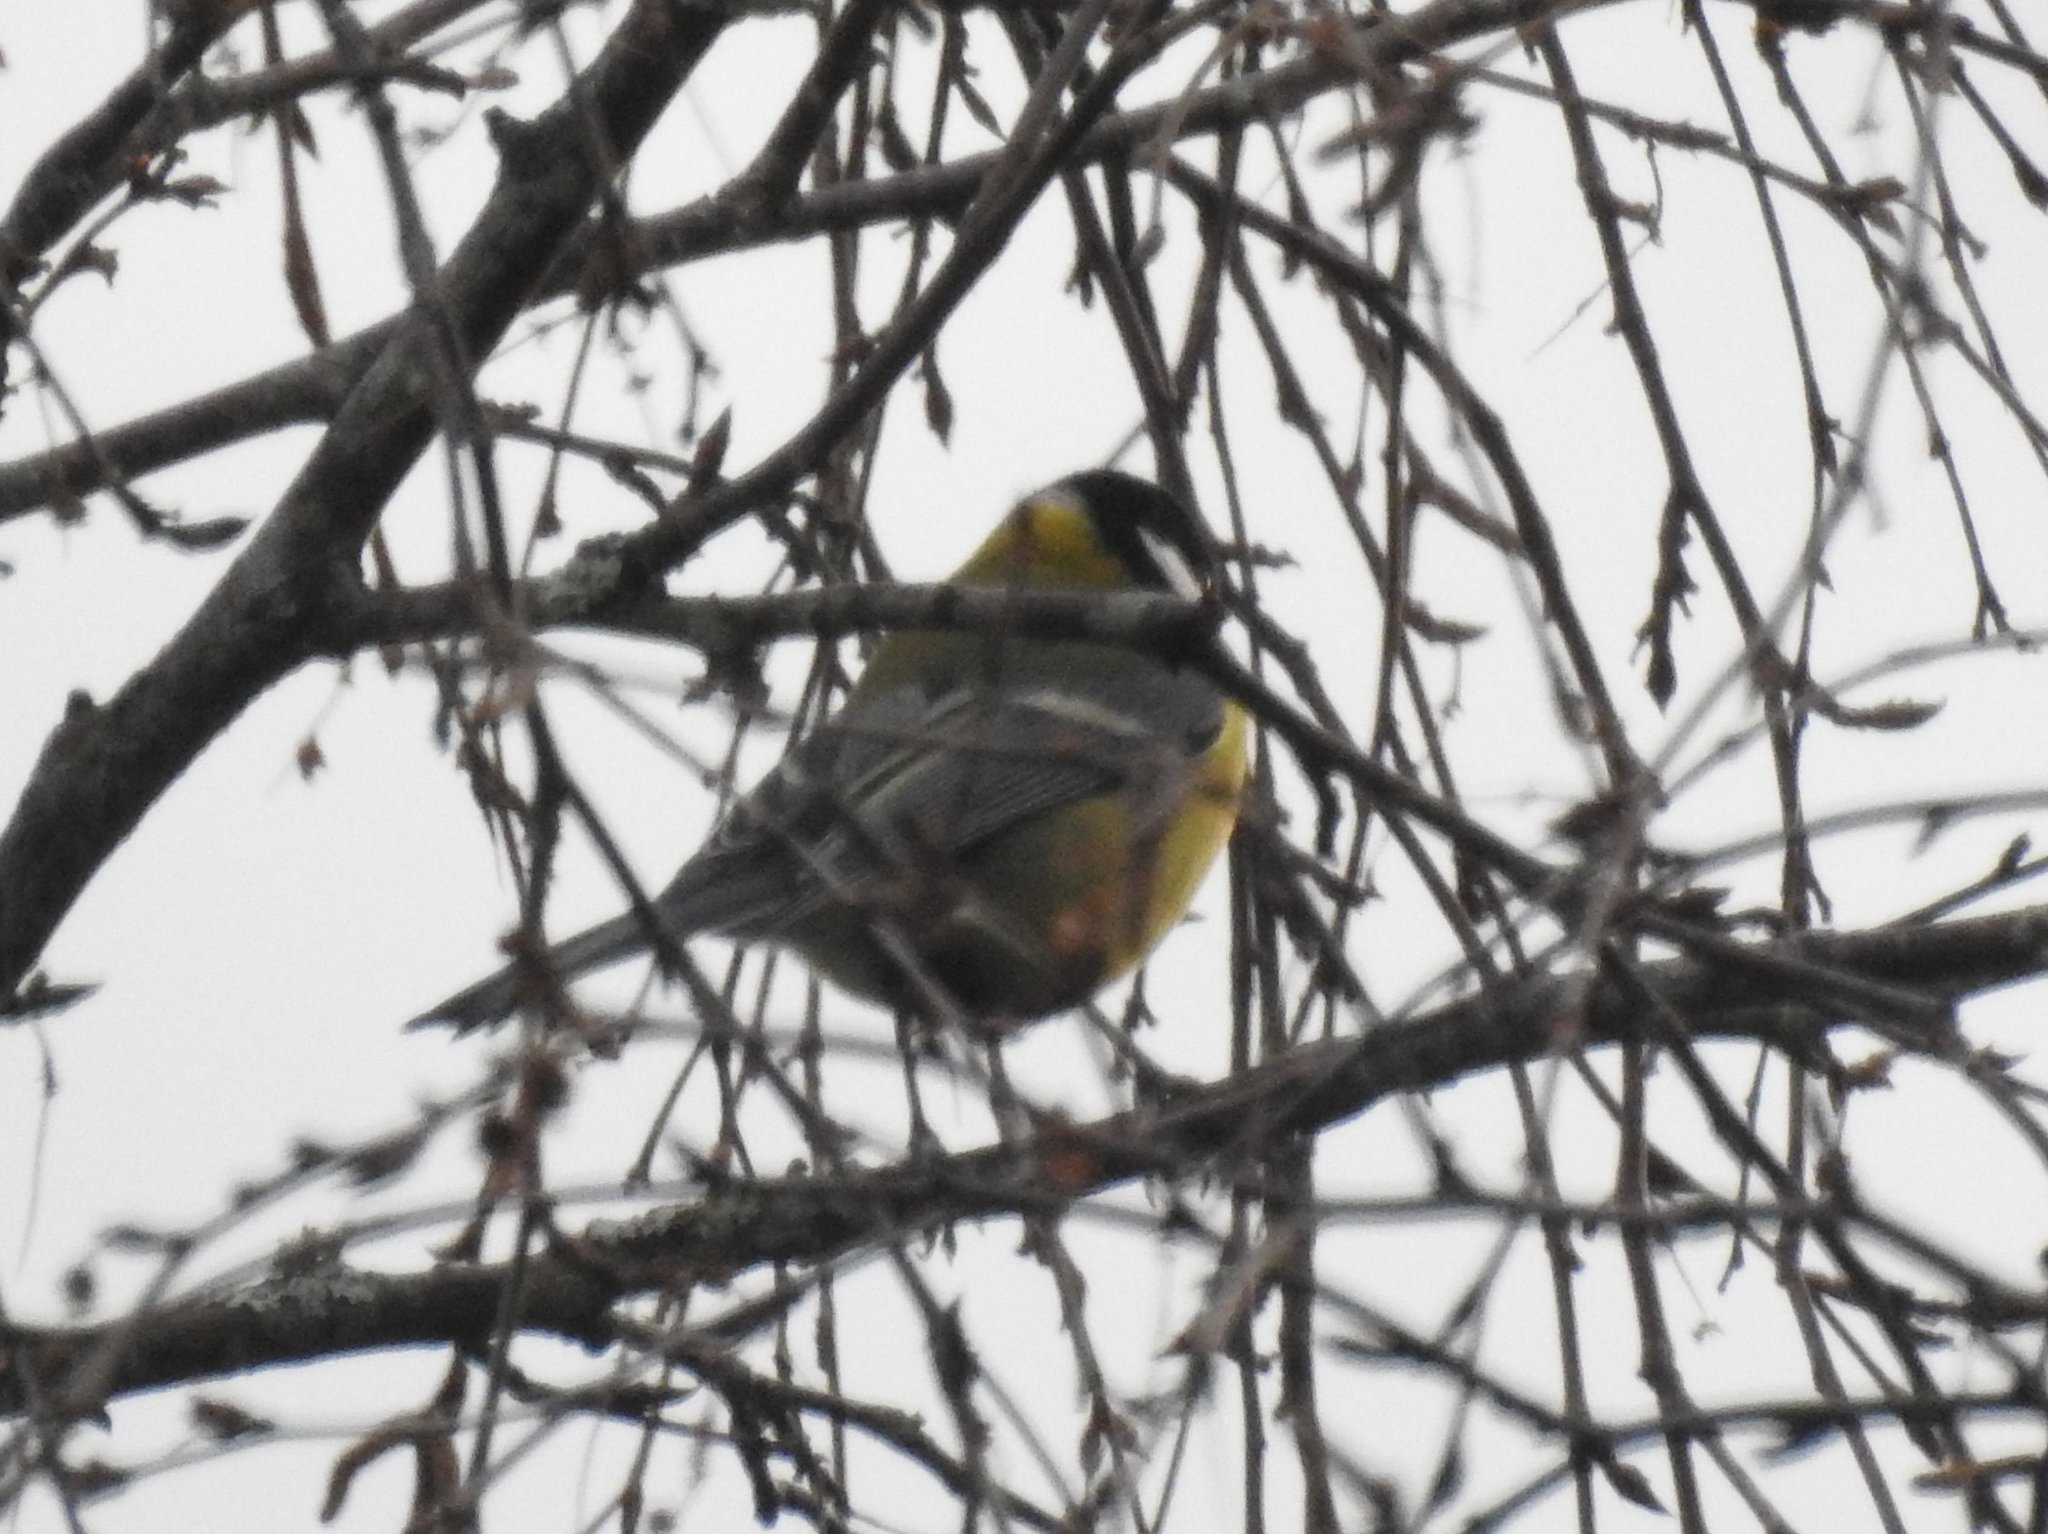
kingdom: Animalia
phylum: Chordata
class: Aves
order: Passeriformes
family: Paridae
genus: Parus
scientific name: Parus major
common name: Great tit
